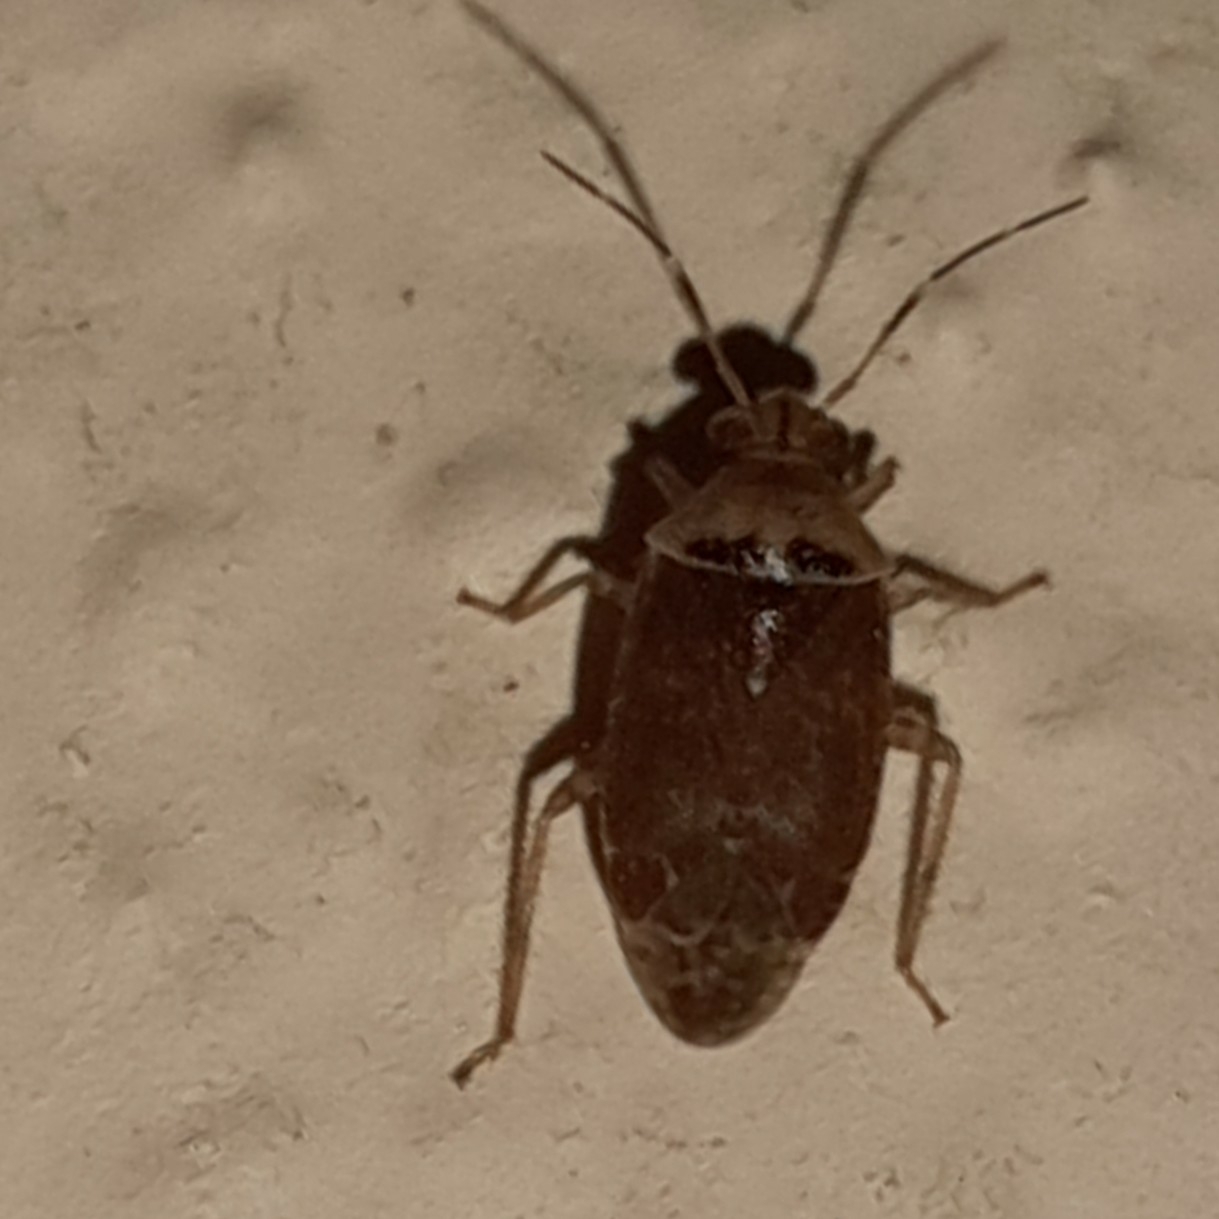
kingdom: Animalia
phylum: Arthropoda
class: Insecta
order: Hemiptera
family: Miridae
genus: Tropidosteptes
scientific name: Tropidosteptes hirsutus
